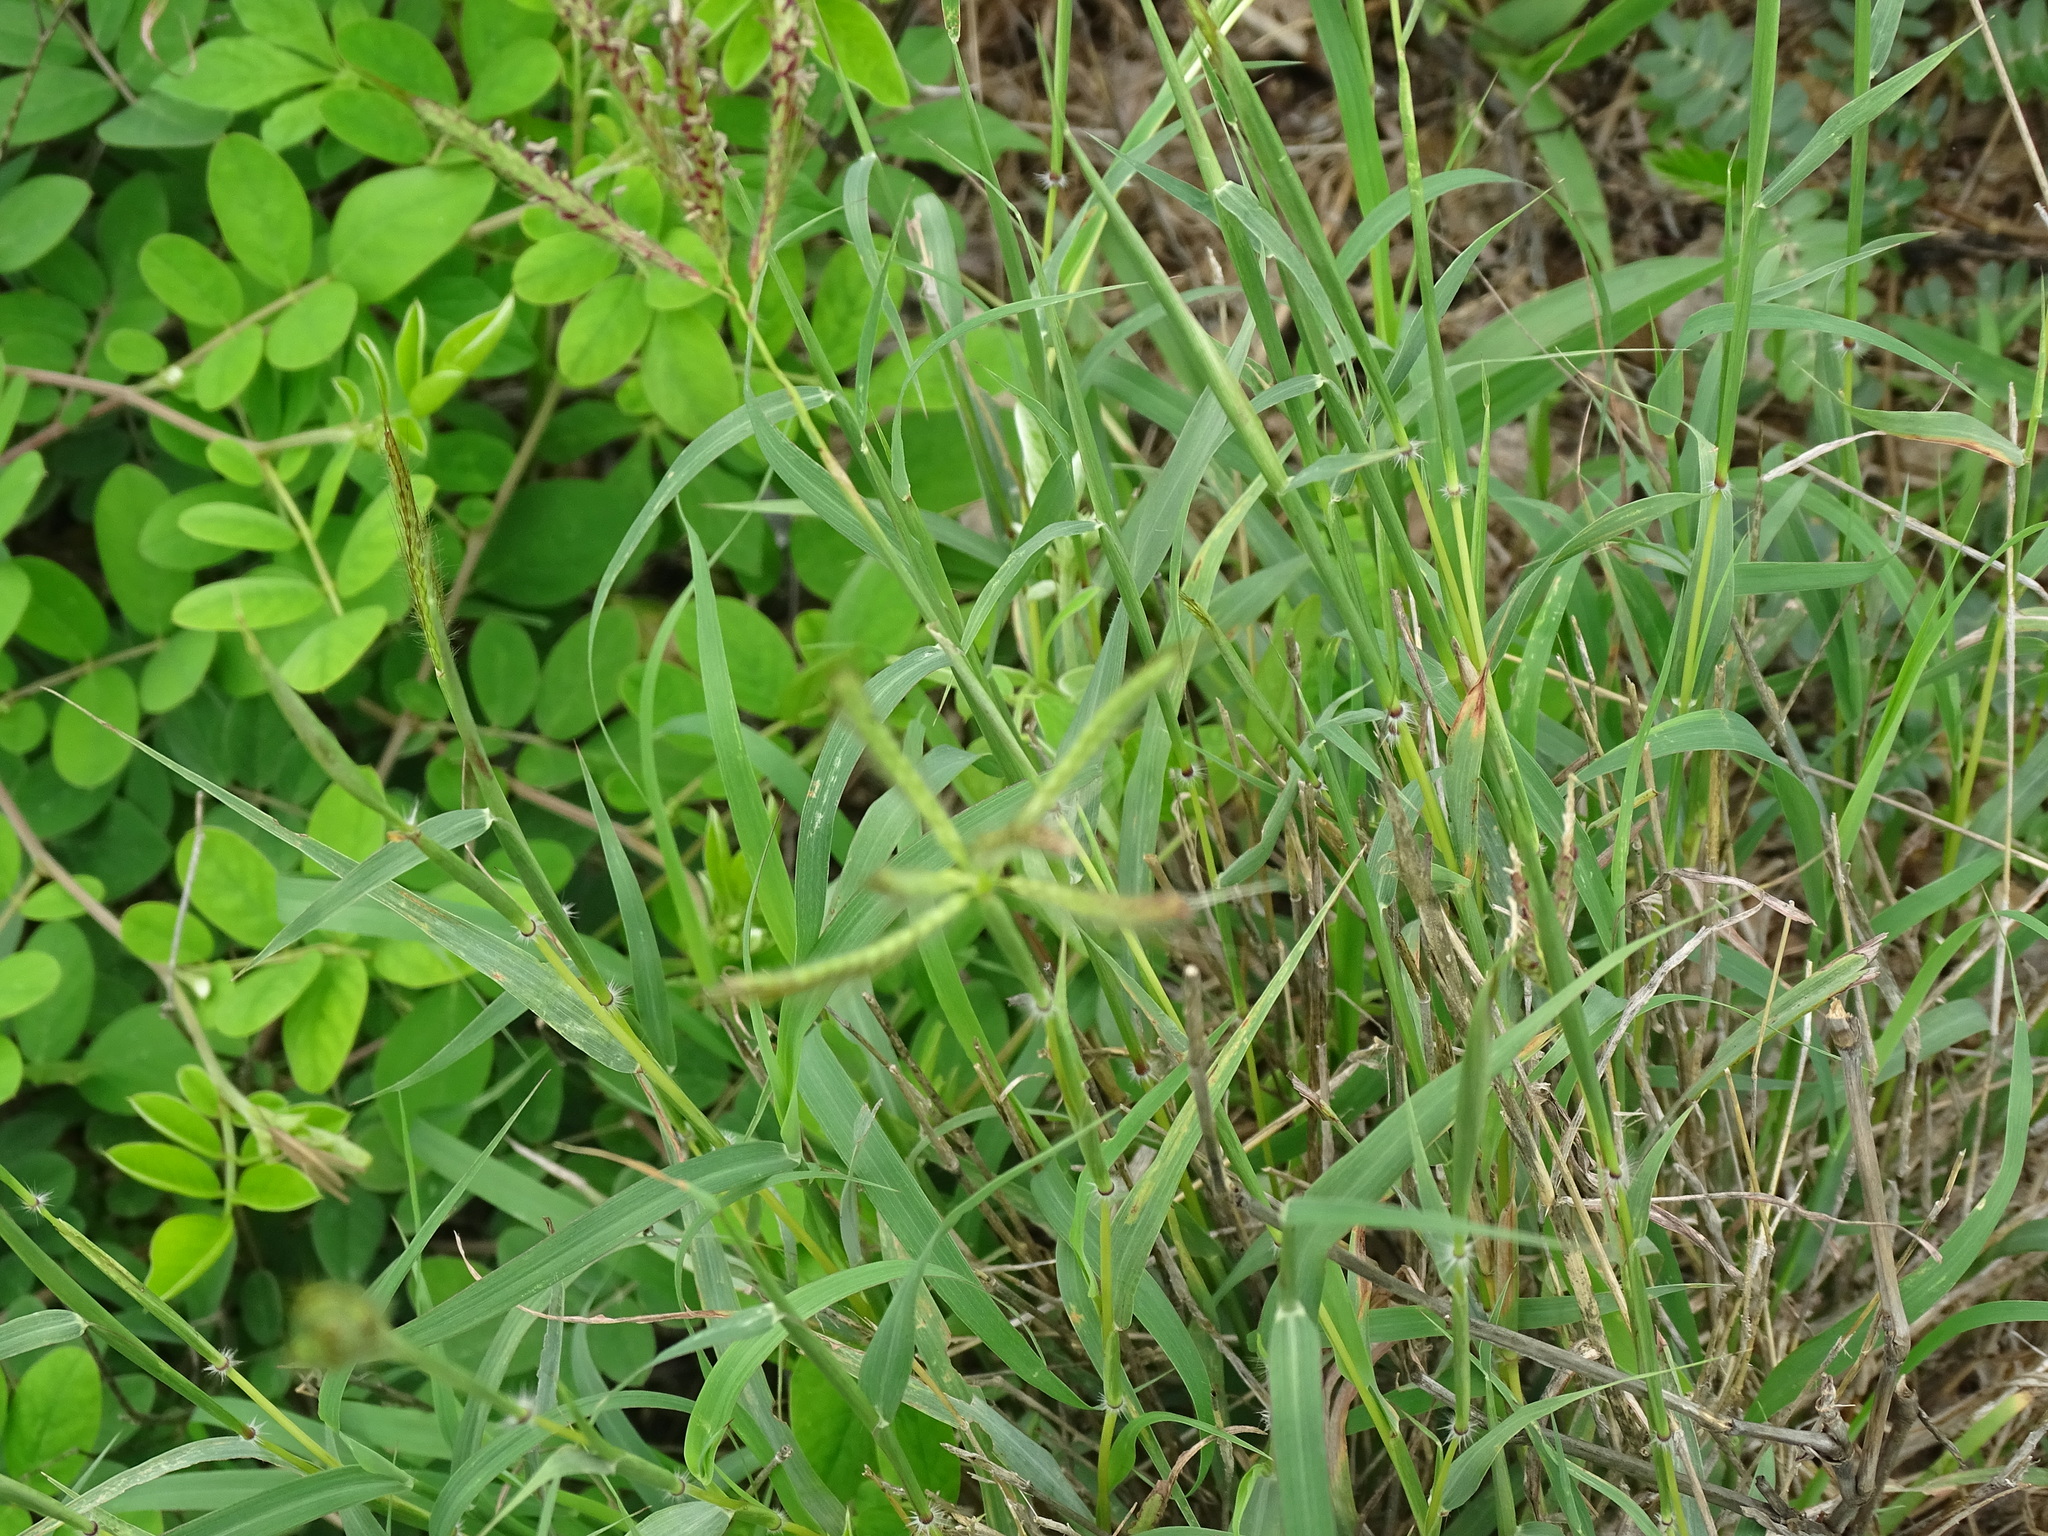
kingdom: Plantae
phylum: Tracheophyta
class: Liliopsida
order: Poales
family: Poaceae
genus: Dichanthium
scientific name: Dichanthium annulatum
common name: Kleberg's bluestem
